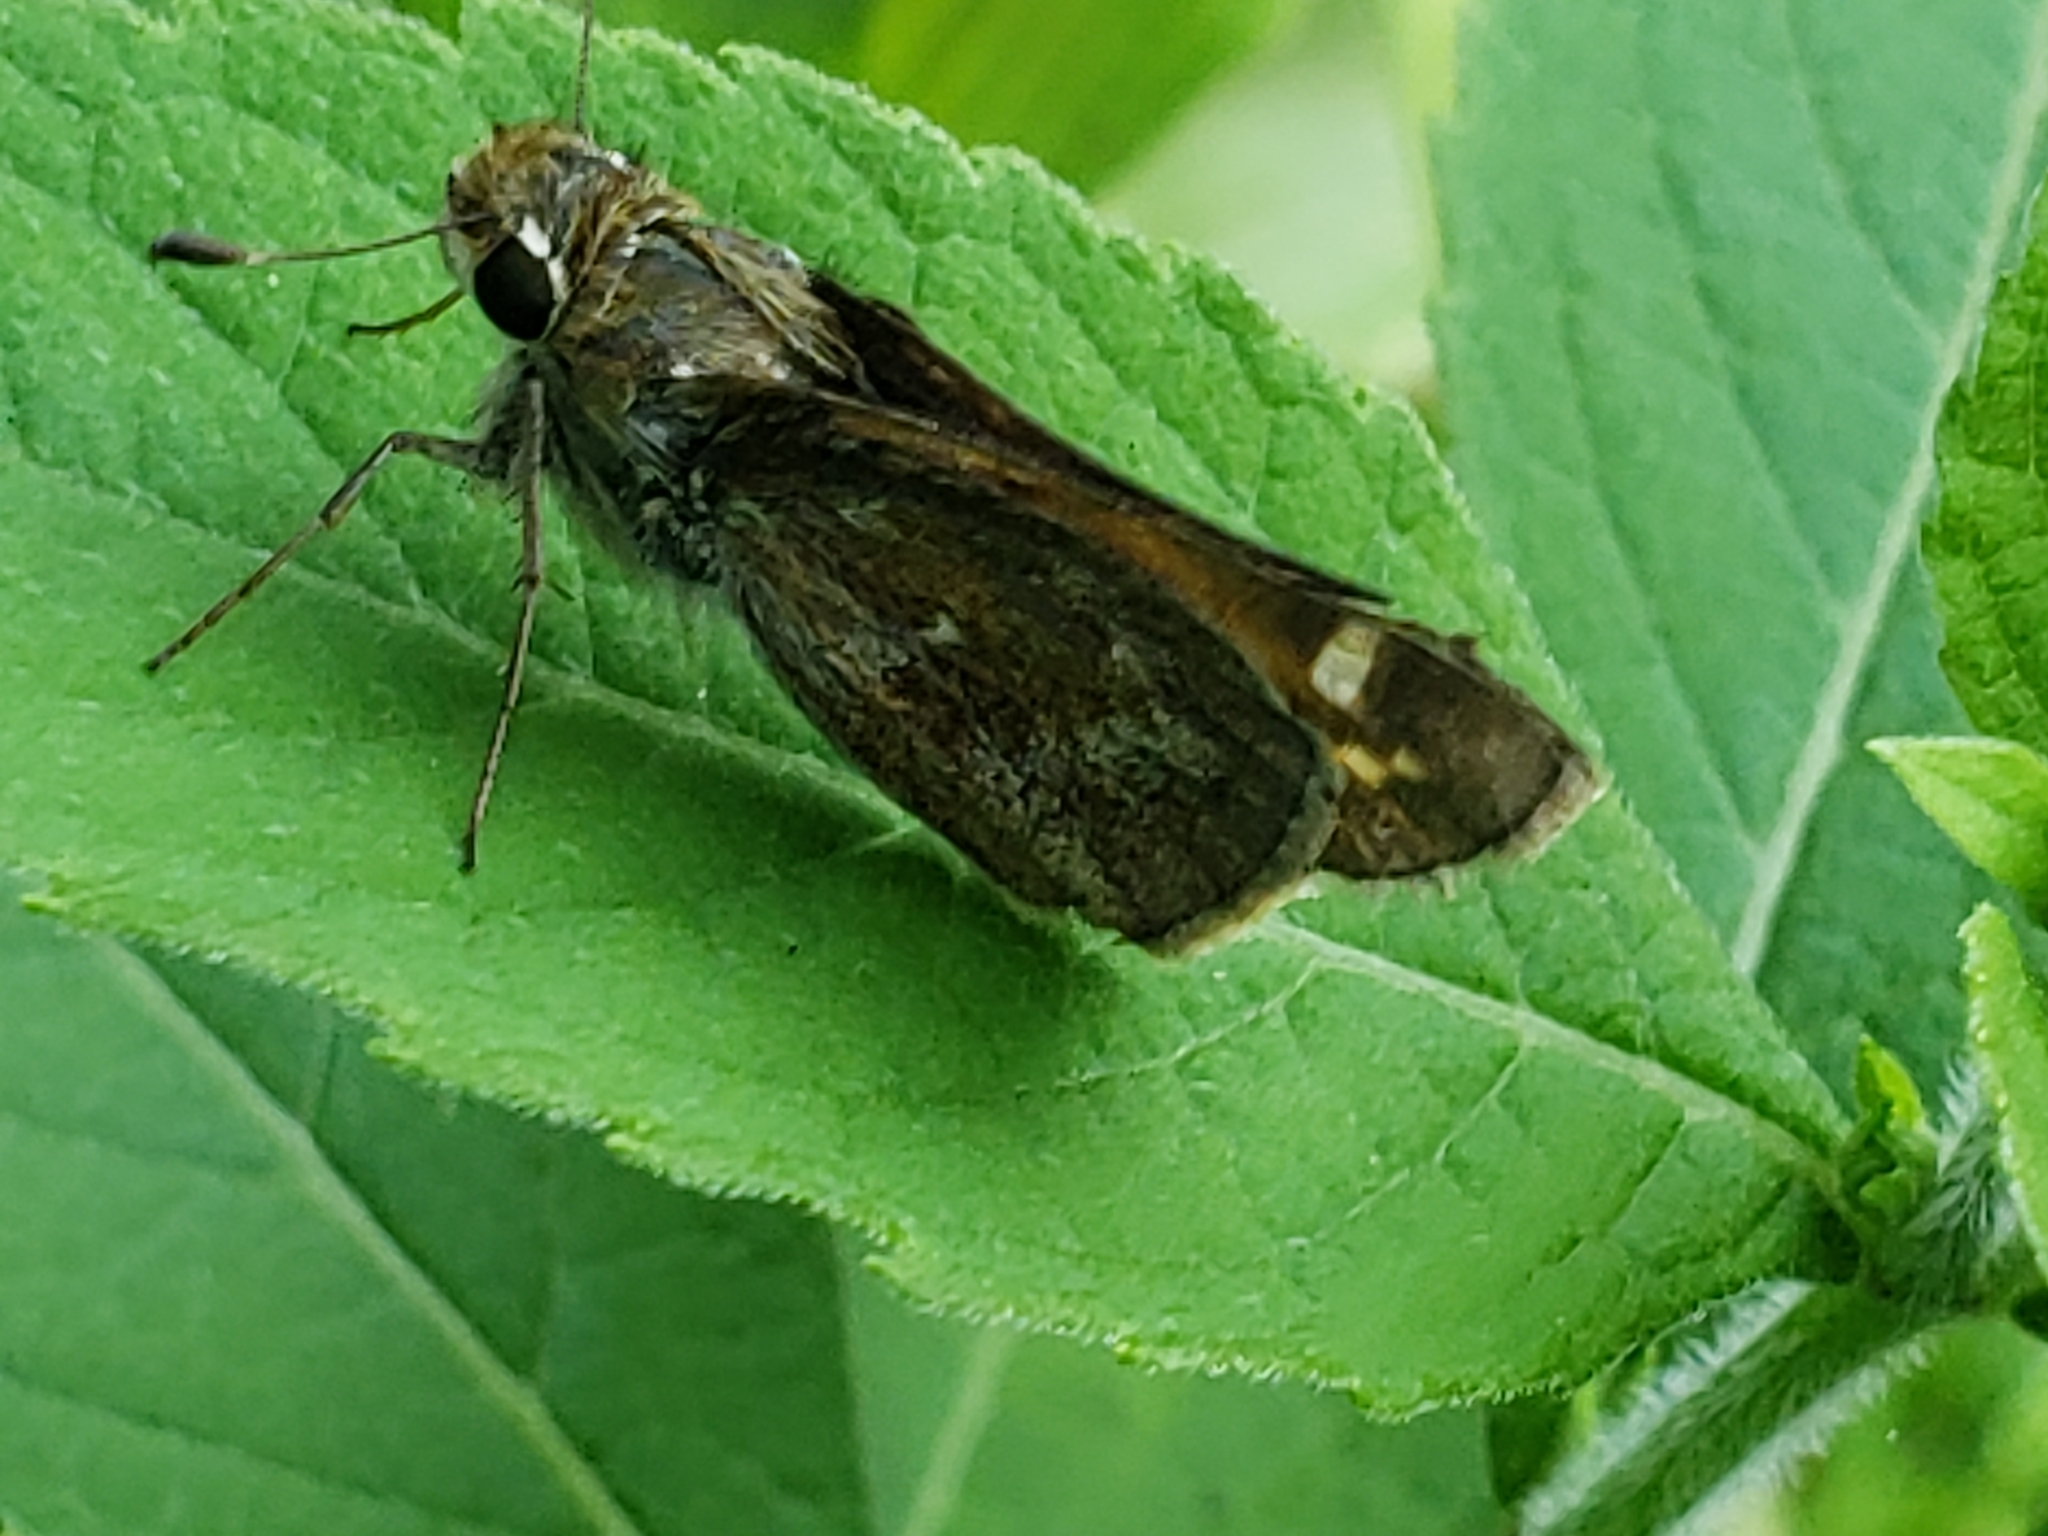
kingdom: Animalia
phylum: Arthropoda
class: Insecta
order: Lepidoptera
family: Hesperiidae
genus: Lon
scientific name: Lon zabulon
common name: Zabulon skipper
